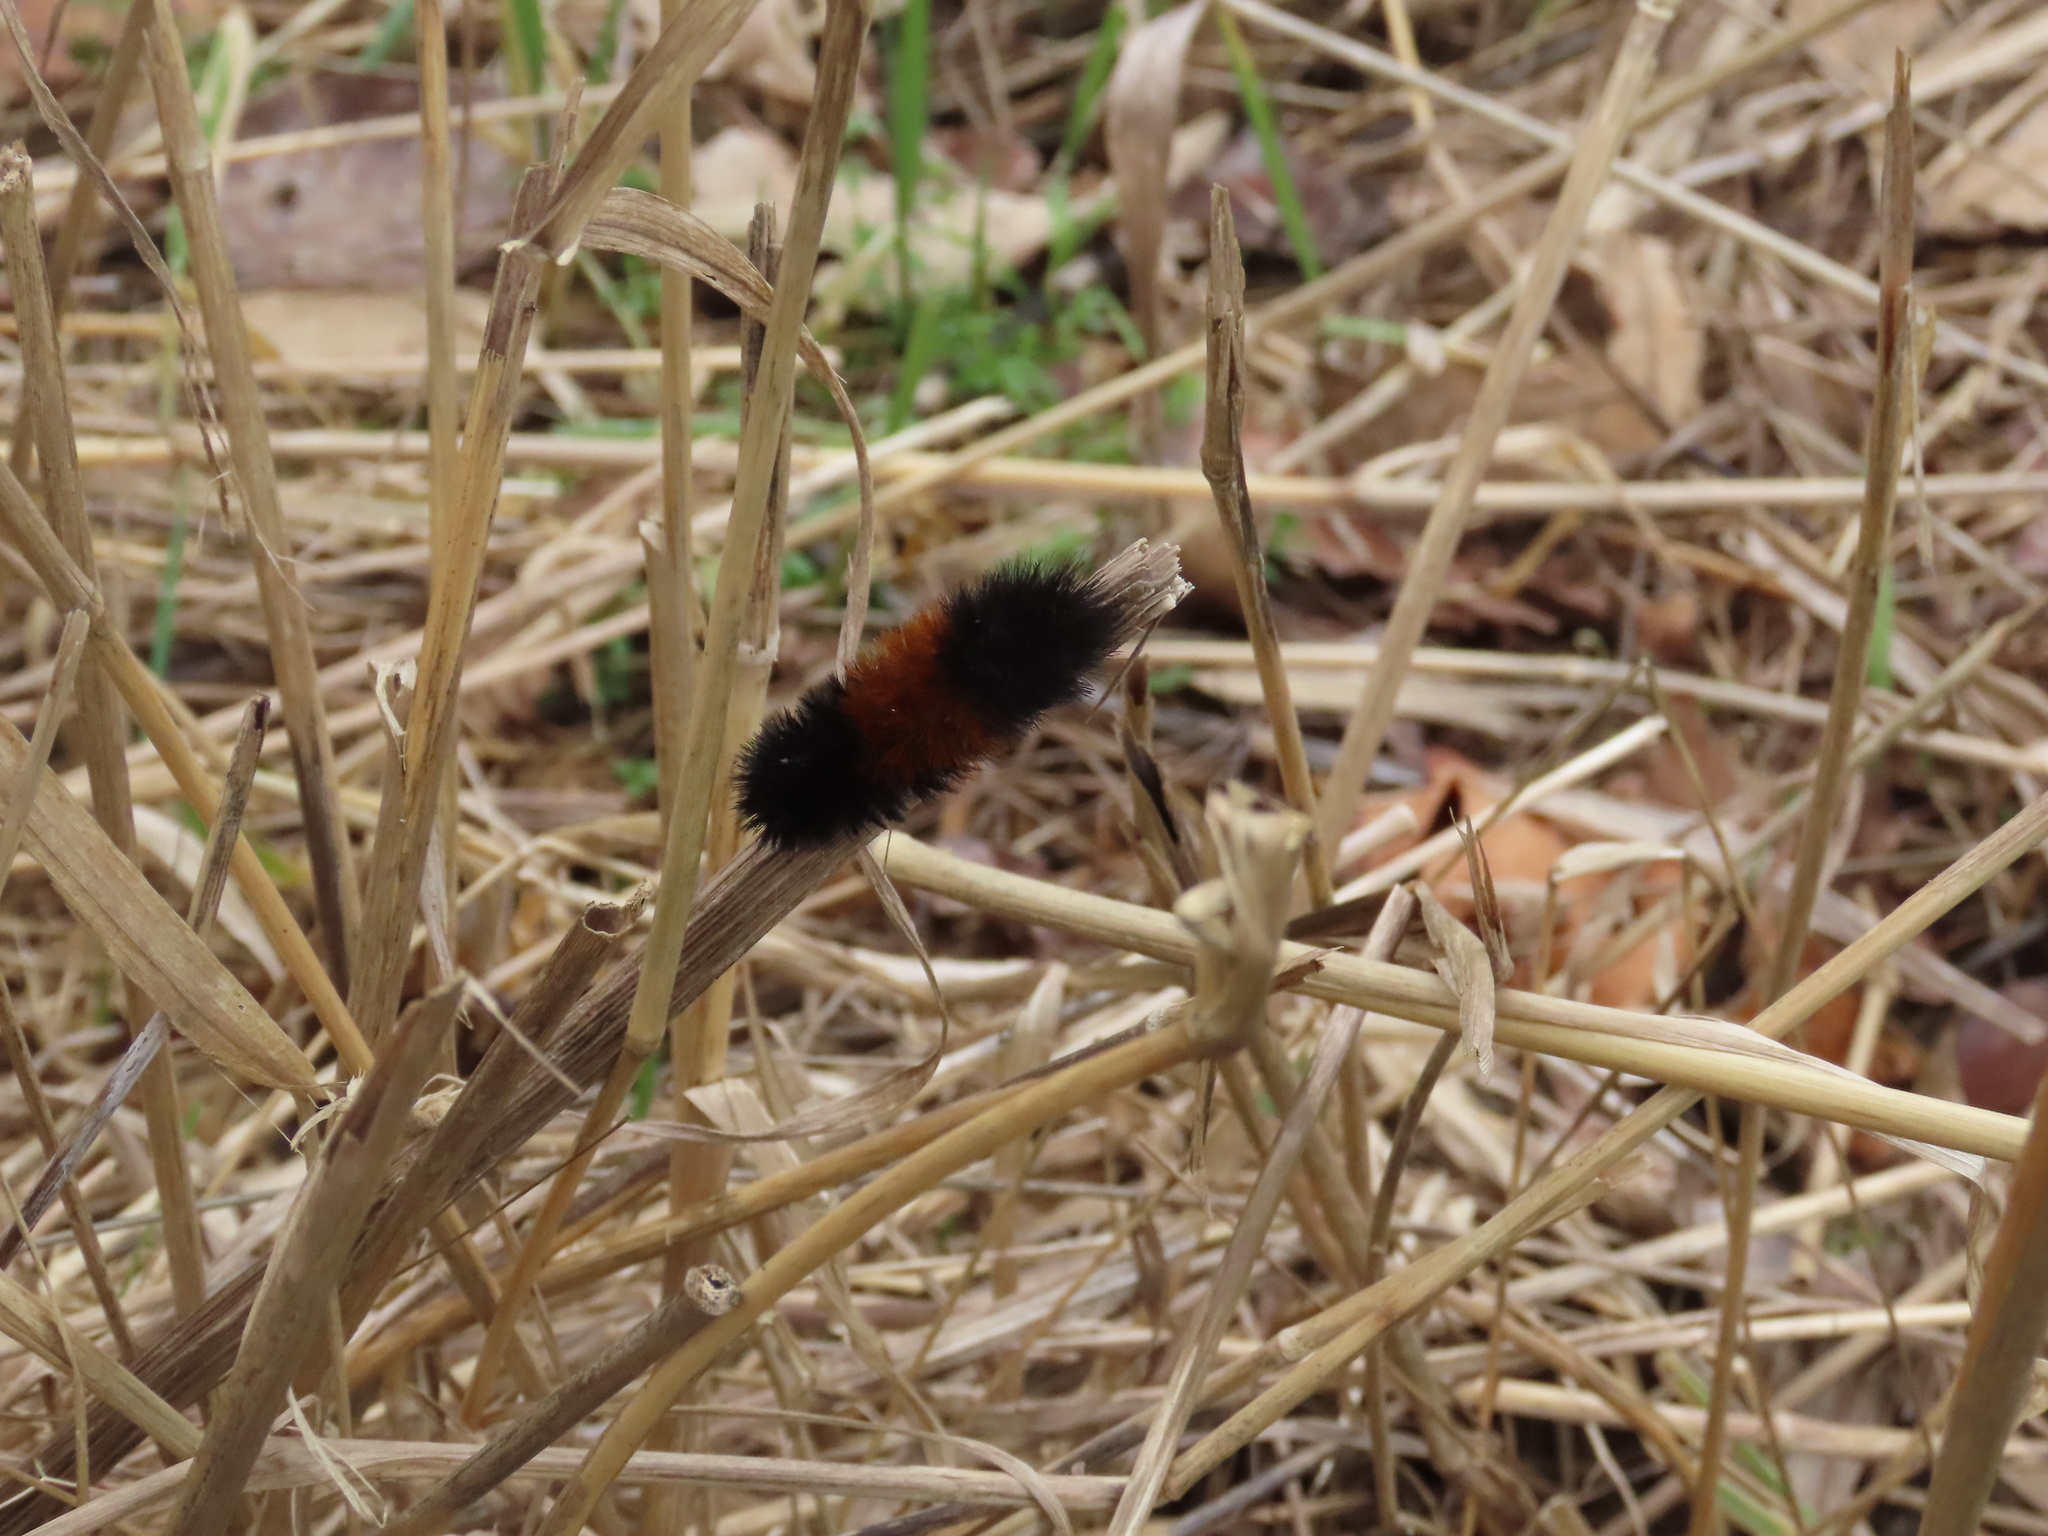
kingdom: Animalia
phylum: Arthropoda
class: Insecta
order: Lepidoptera
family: Erebidae
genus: Pyrrharctia
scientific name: Pyrrharctia isabella
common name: Isabella tiger moth
